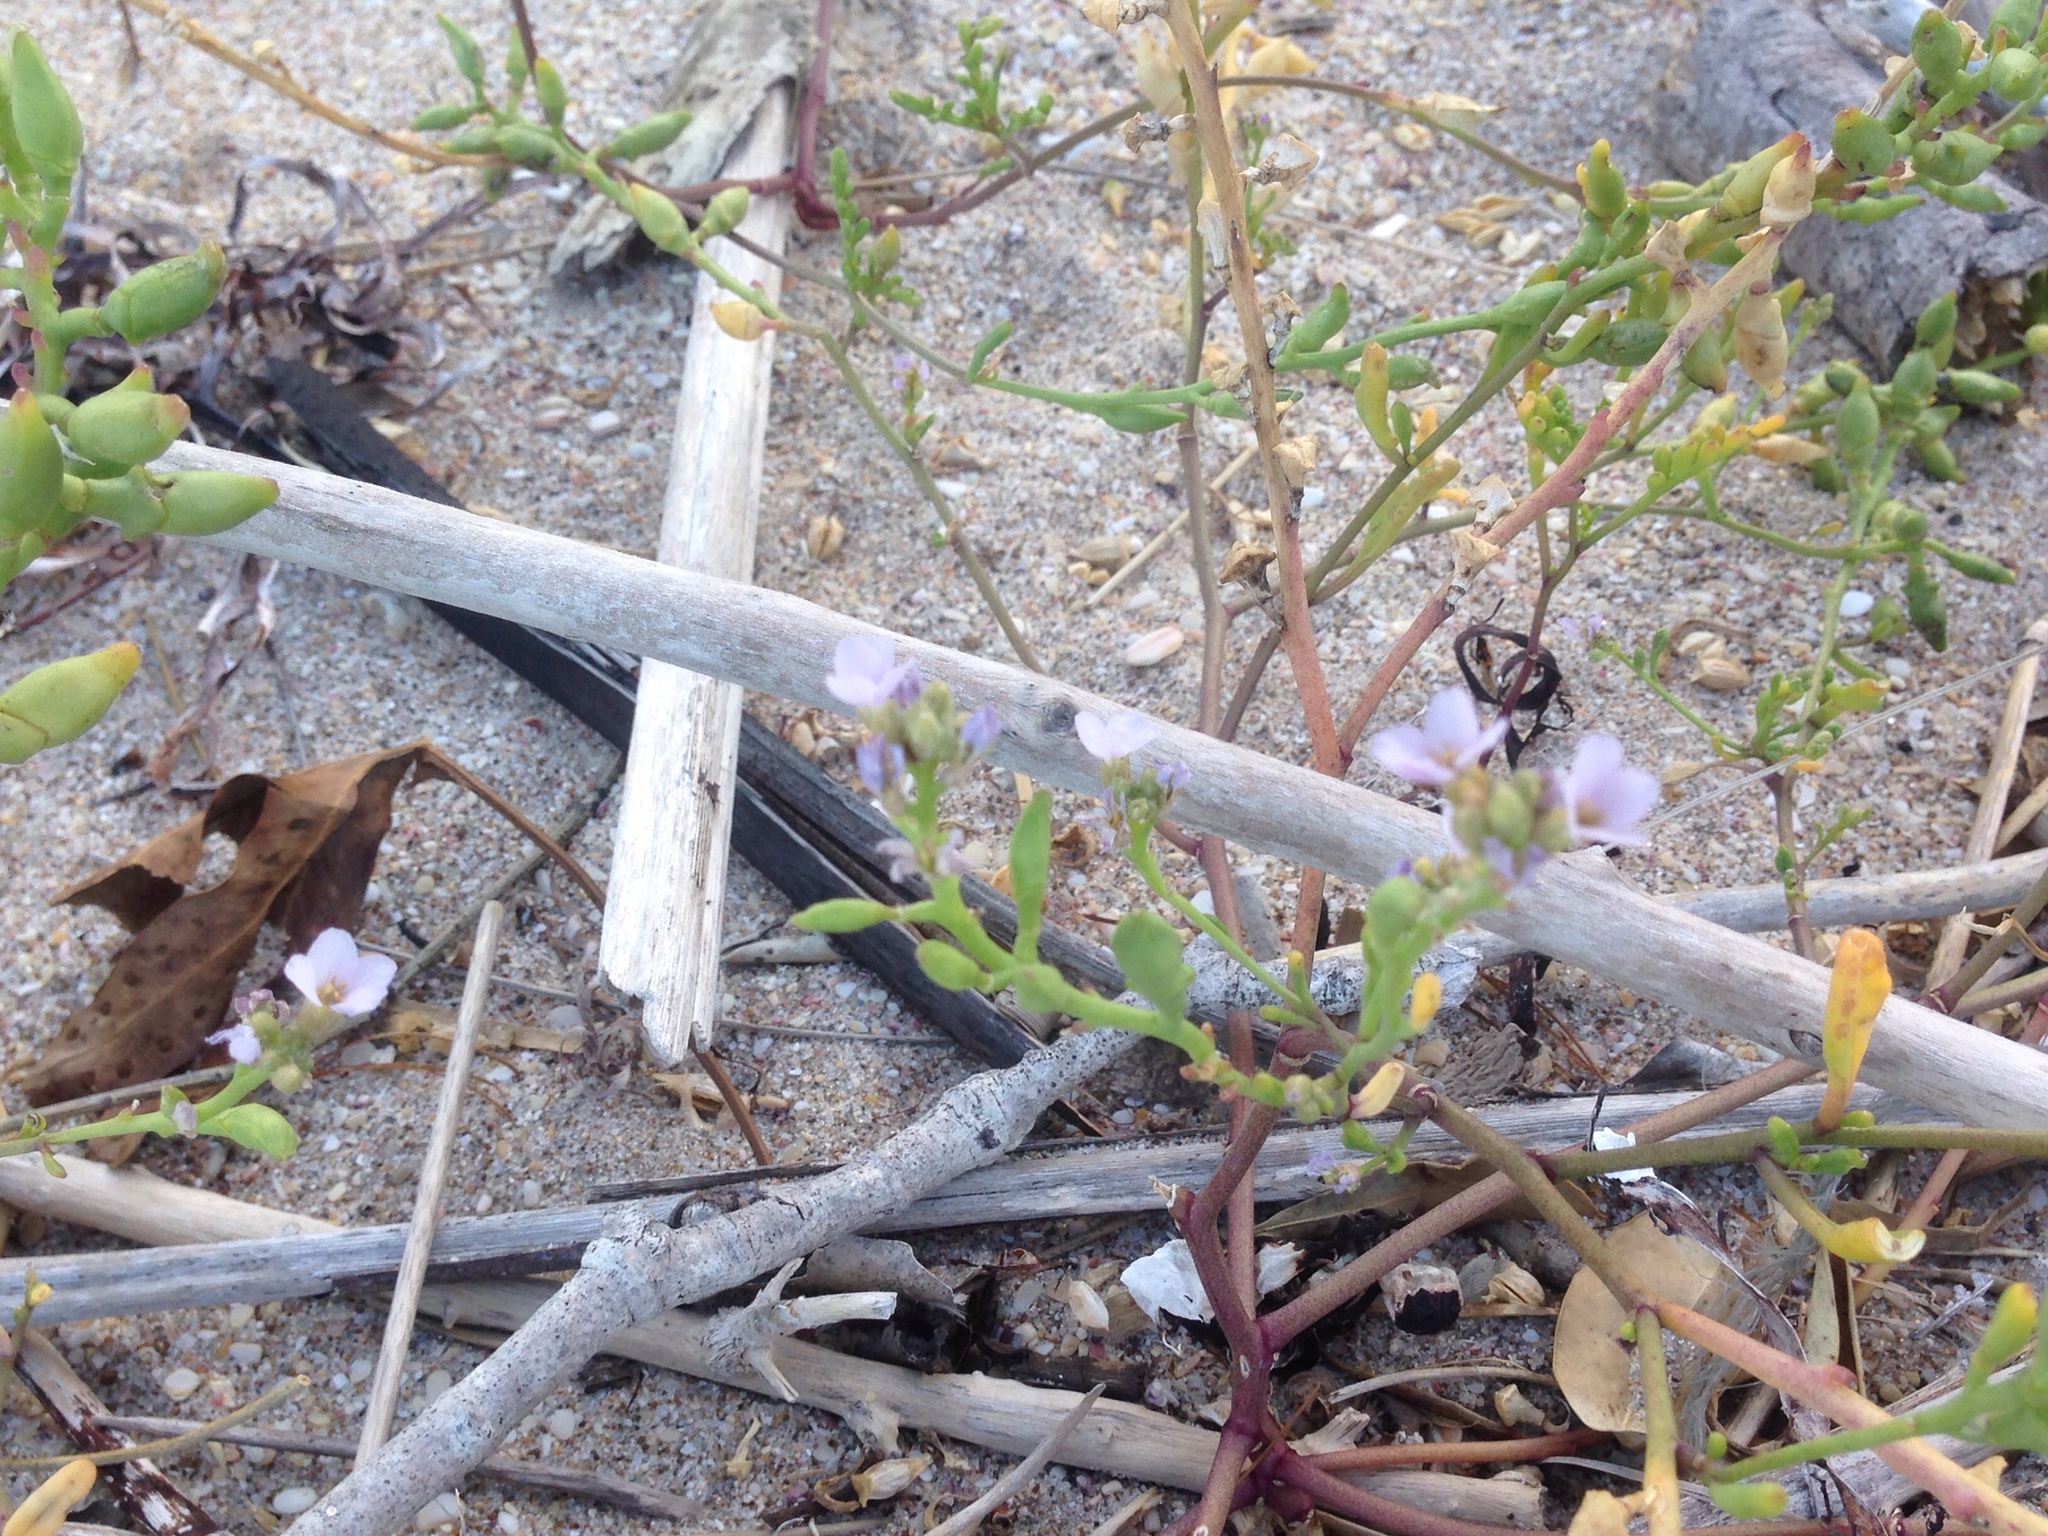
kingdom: Plantae
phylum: Tracheophyta
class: Magnoliopsida
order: Brassicales
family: Brassicaceae
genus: Cakile
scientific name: Cakile maritima
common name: Sea rocket
